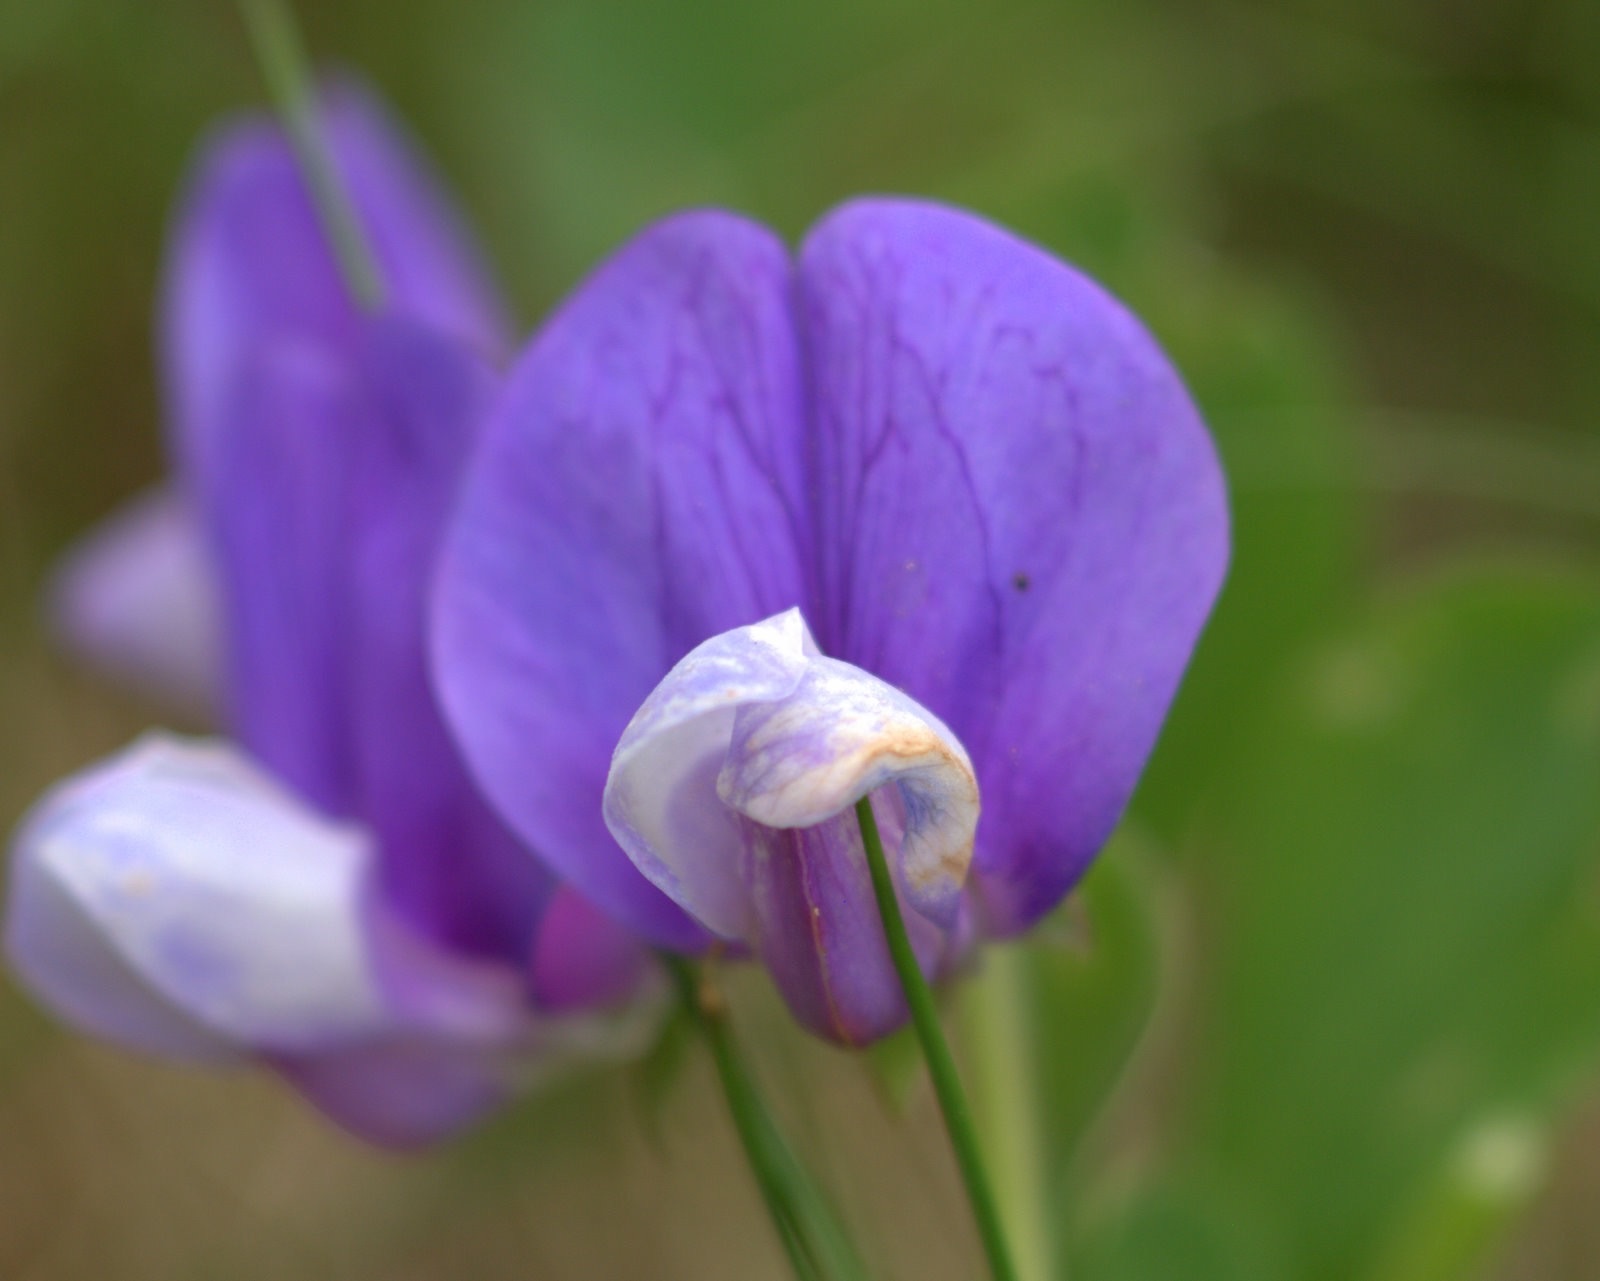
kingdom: Plantae
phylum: Tracheophyta
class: Magnoliopsida
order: Fabales
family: Fabaceae
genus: Lathyrus
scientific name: Lathyrus japonicus
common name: Sea pea
